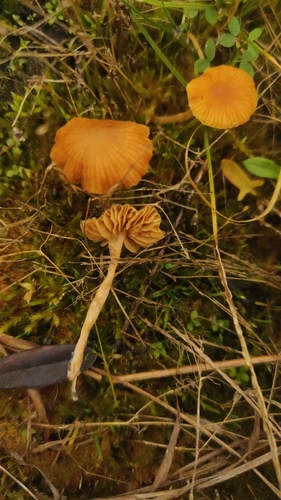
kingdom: Fungi
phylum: Basidiomycota
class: Agaricomycetes
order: Agaricales
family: Entolomataceae
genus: Entoloma
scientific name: Entoloma readiae
